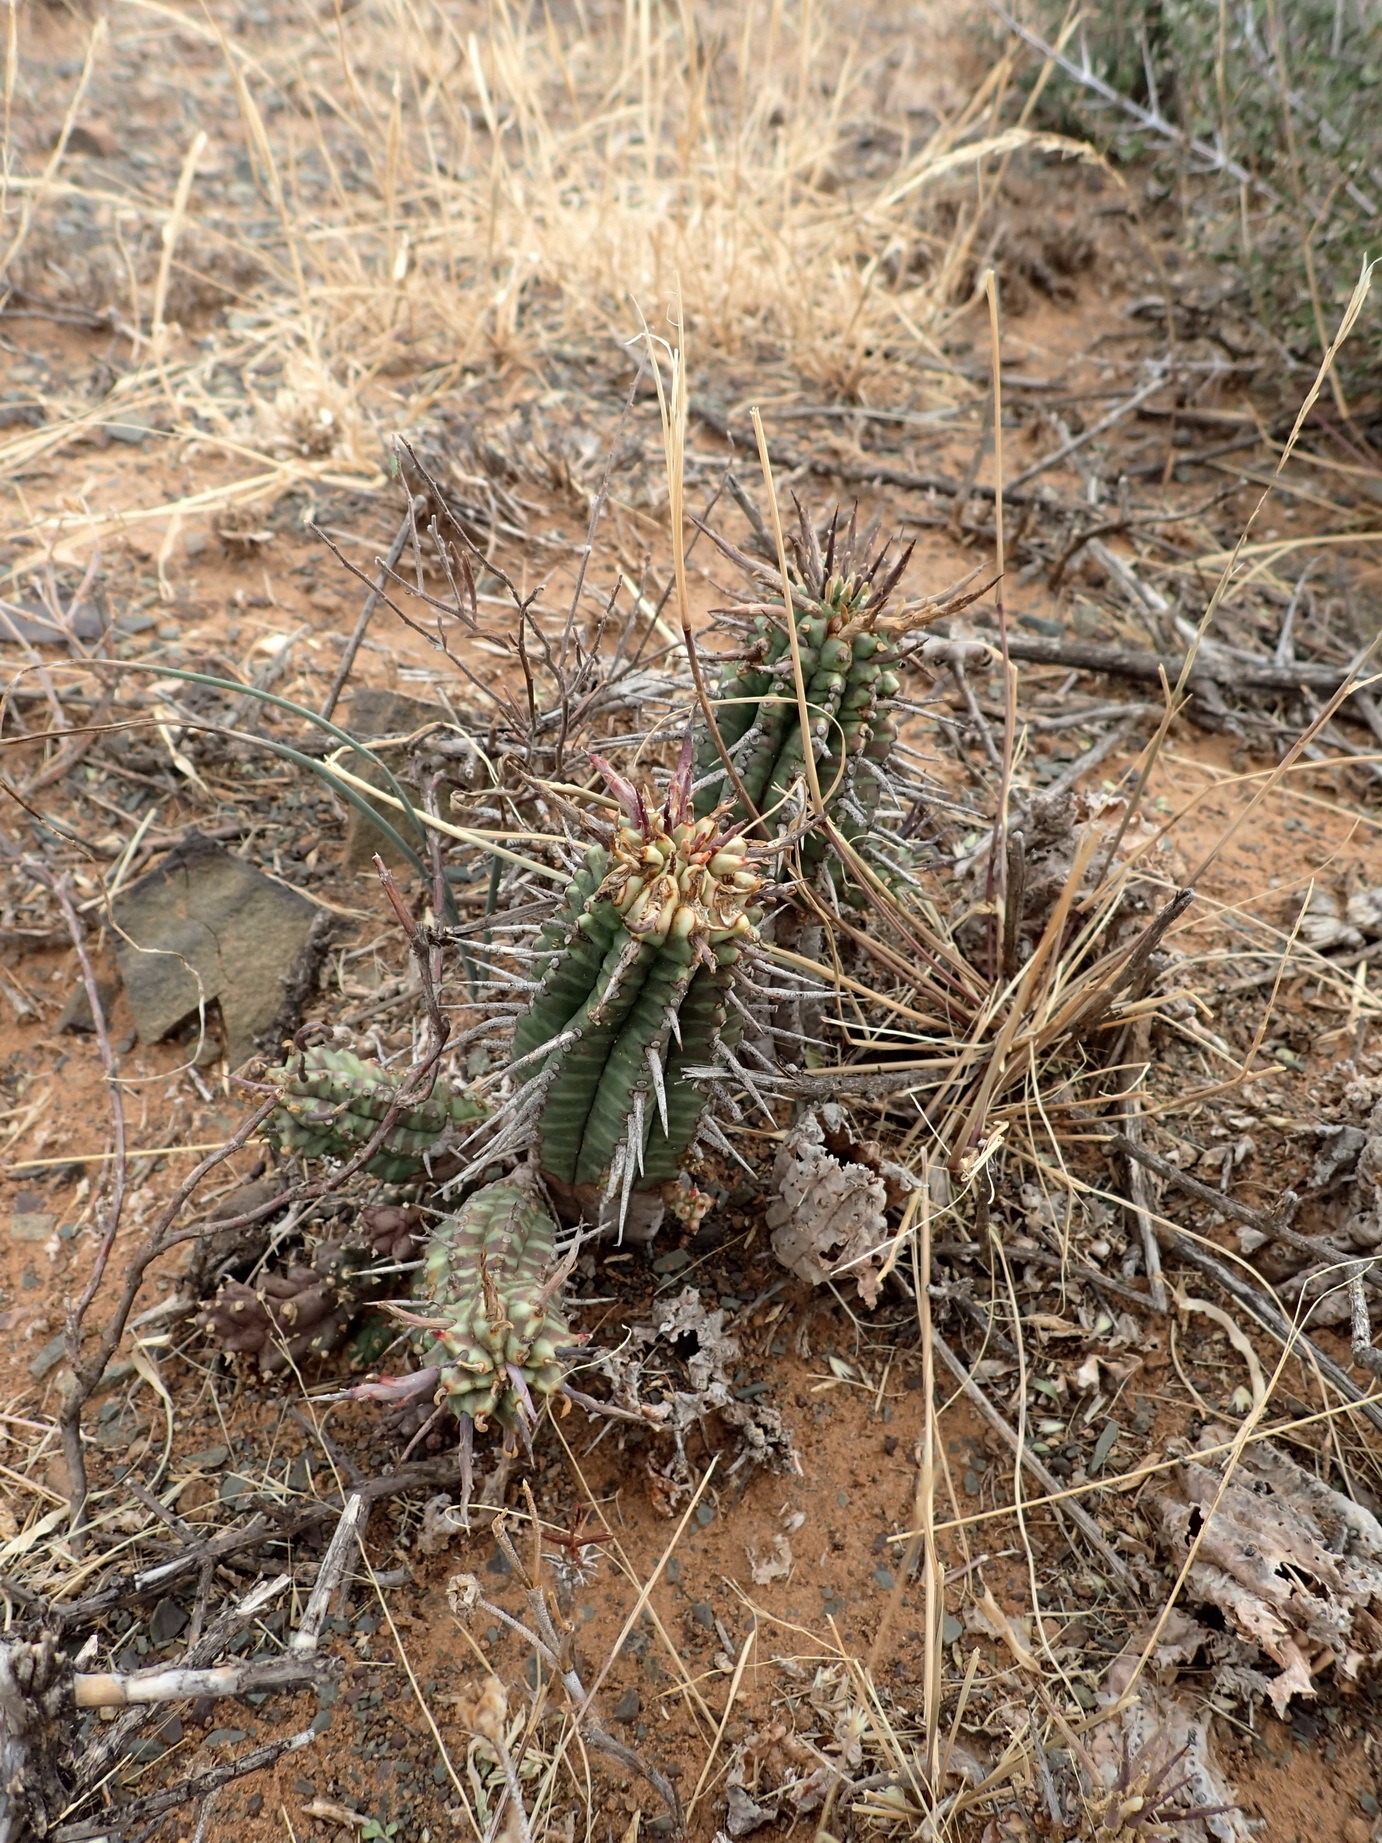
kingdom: Plantae
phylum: Tracheophyta
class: Magnoliopsida
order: Malpighiales
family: Euphorbiaceae
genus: Euphorbia
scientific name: Euphorbia ferox
